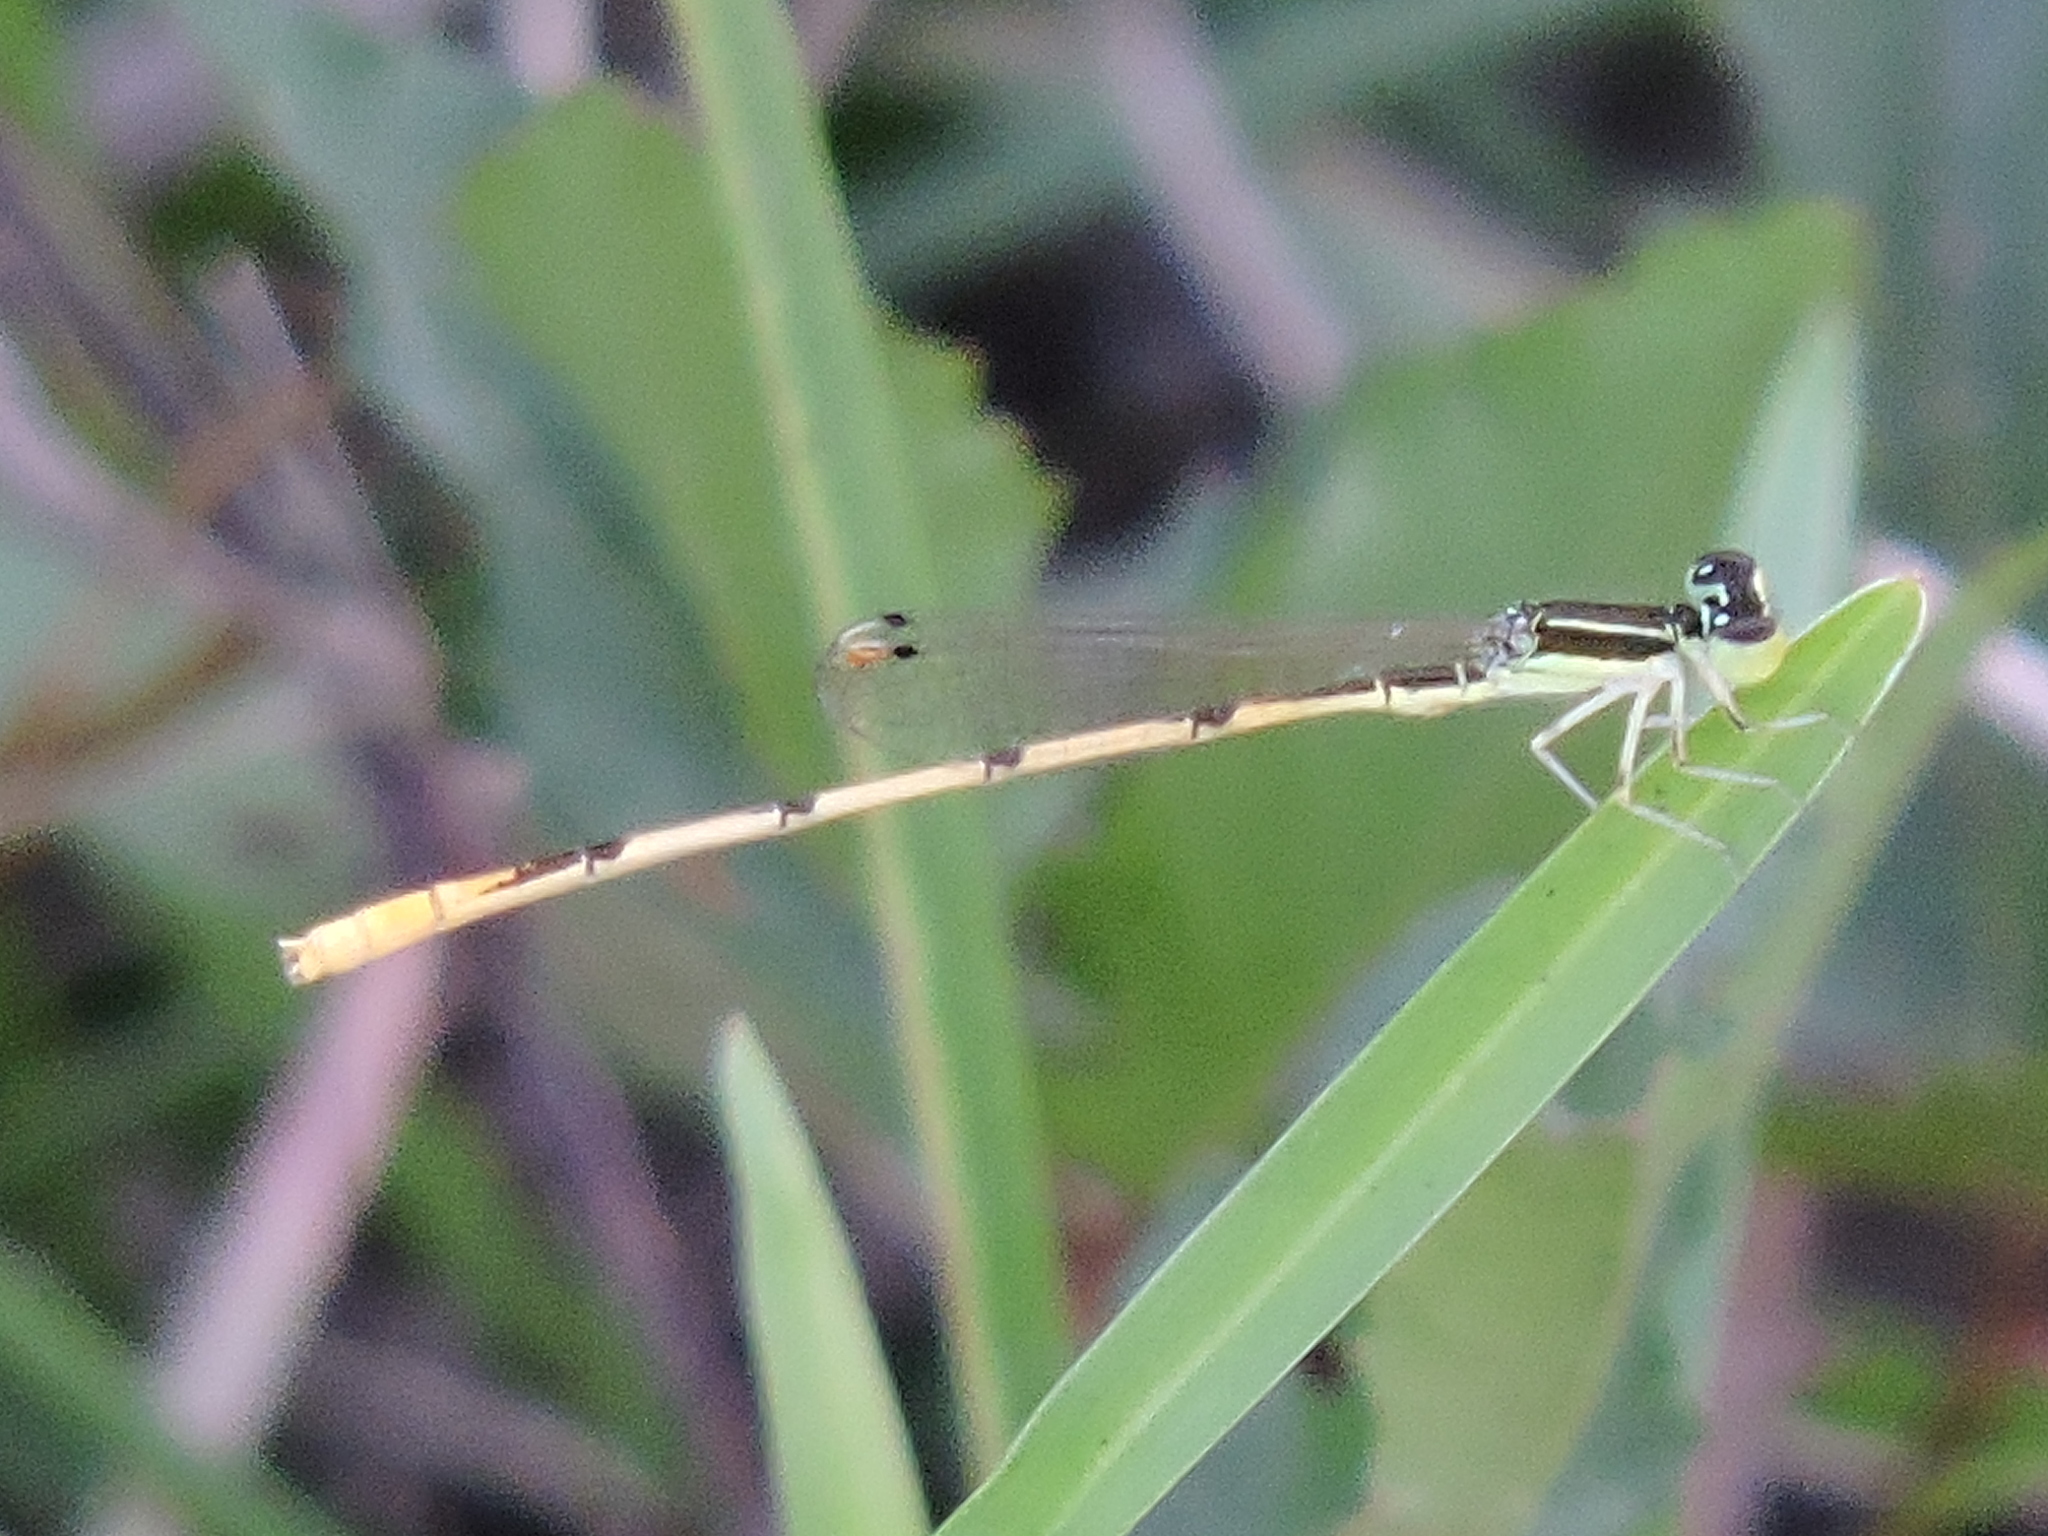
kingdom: Animalia
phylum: Arthropoda
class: Insecta
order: Odonata
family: Coenagrionidae
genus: Ischnura
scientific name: Ischnura hastata
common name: Citrine forktail
